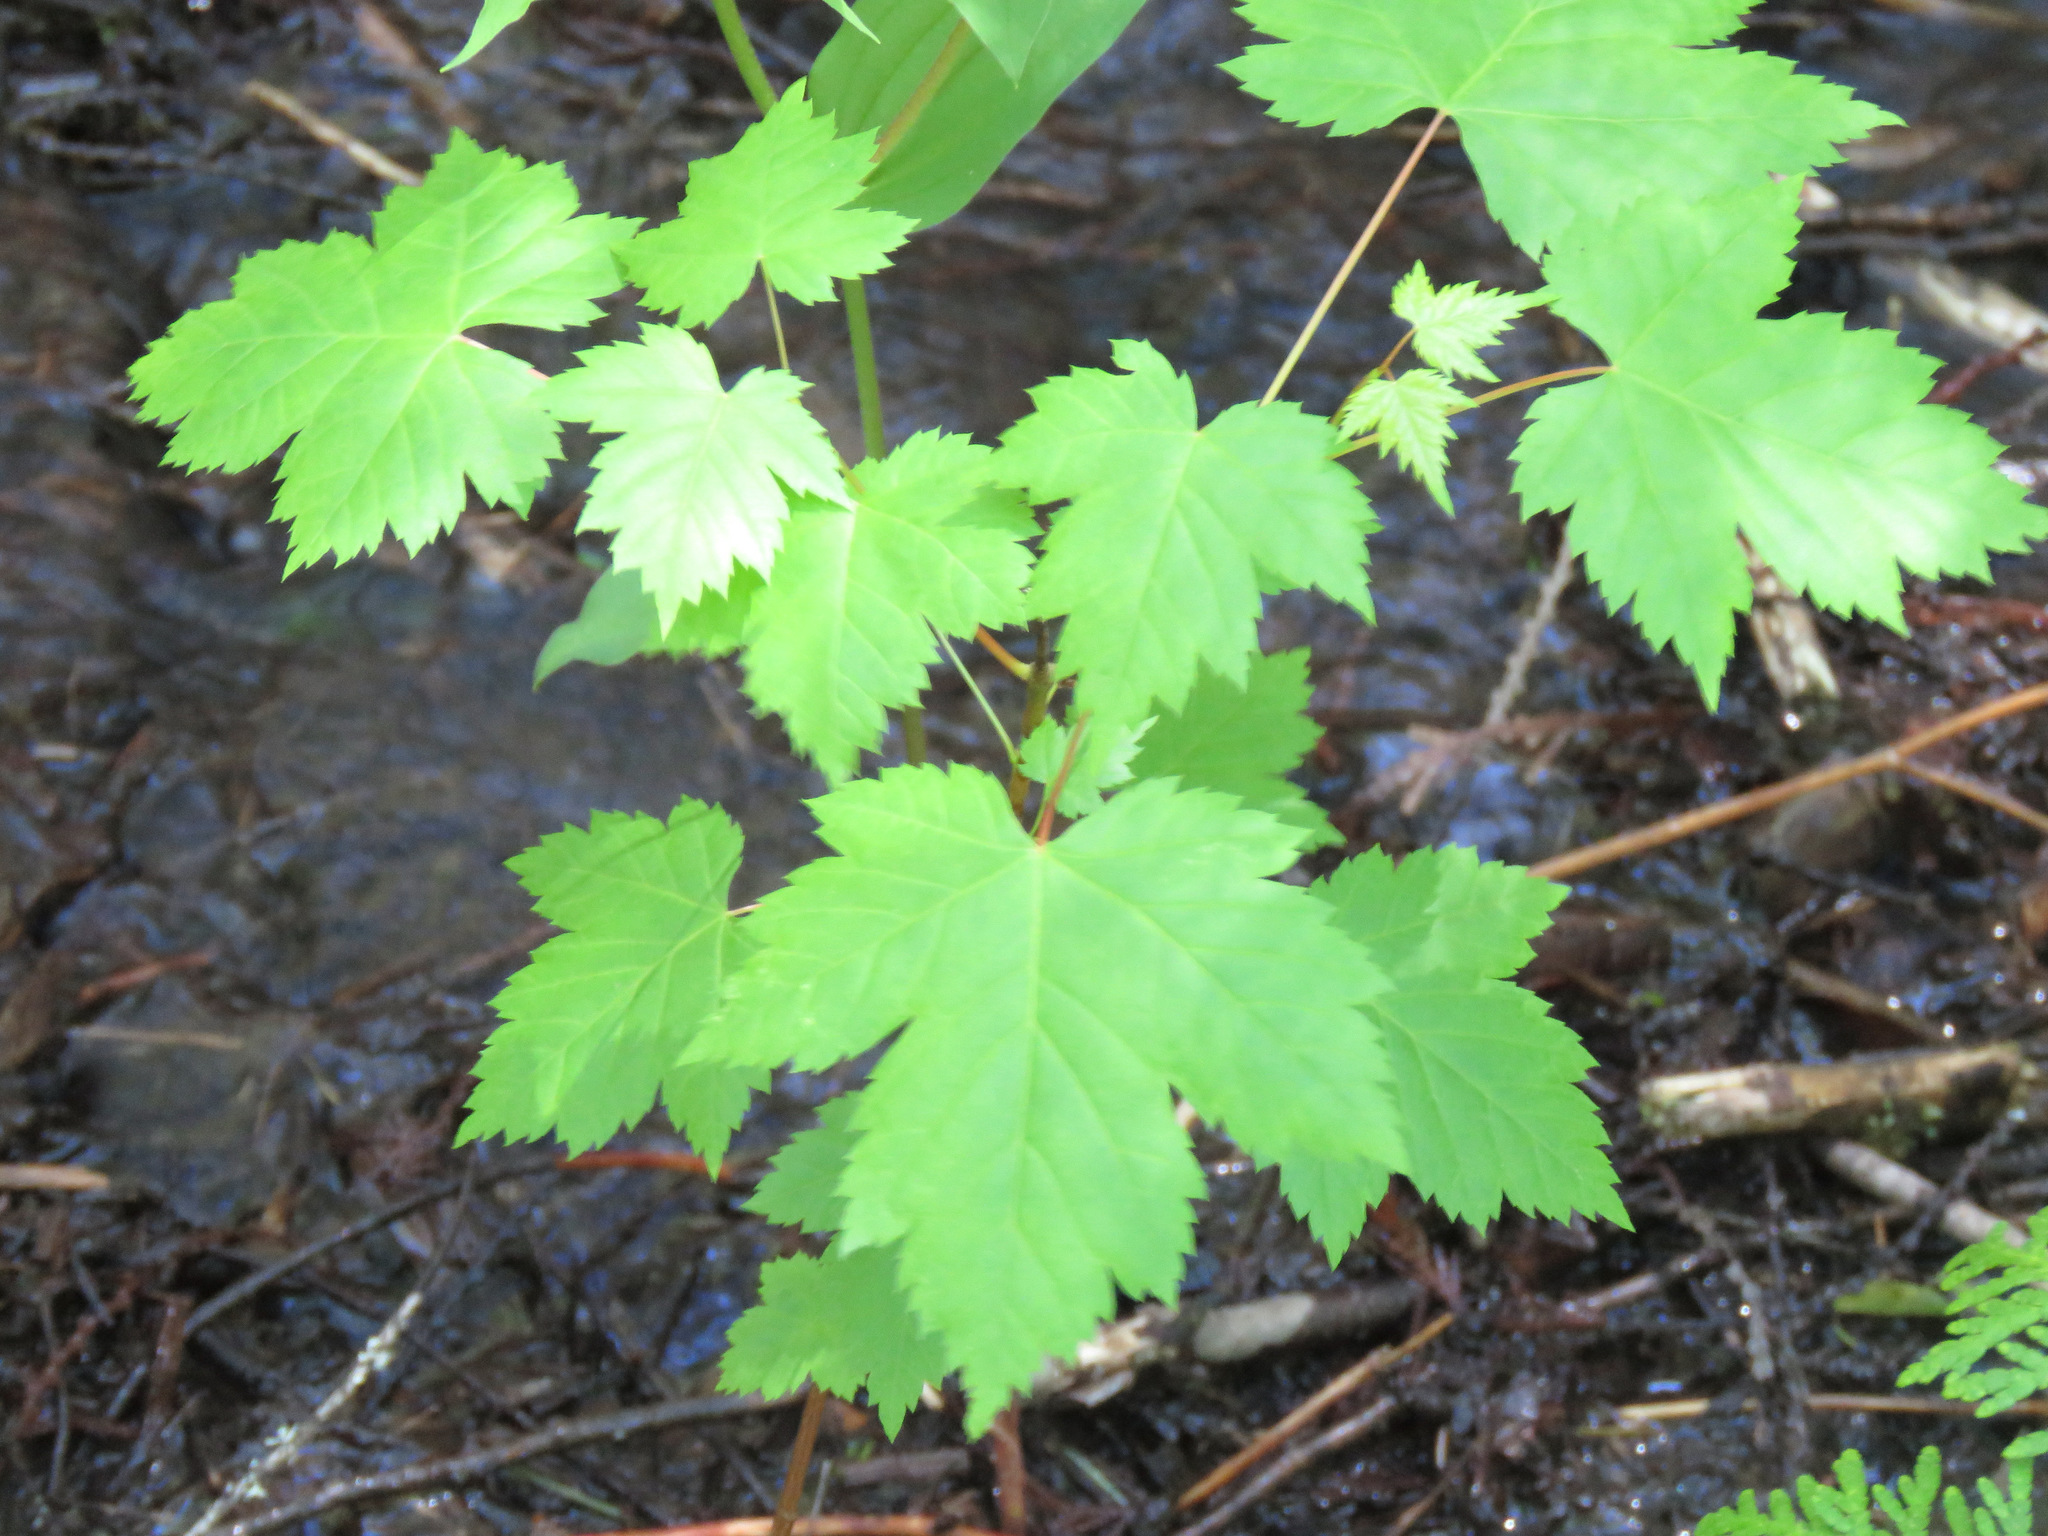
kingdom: Plantae
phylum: Tracheophyta
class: Magnoliopsida
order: Sapindales
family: Sapindaceae
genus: Acer
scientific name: Acer glabrum
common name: Rocky mountain maple
